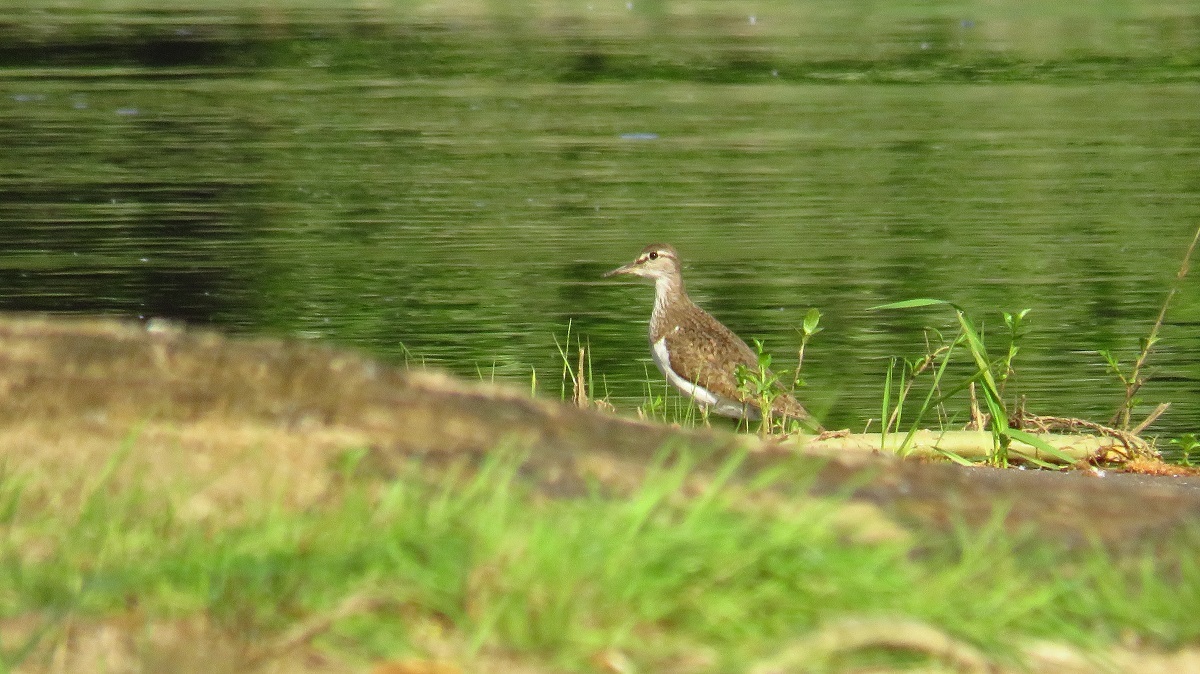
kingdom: Animalia
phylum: Chordata
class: Aves
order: Charadriiformes
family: Scolopacidae
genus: Actitis
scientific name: Actitis hypoleucos
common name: Common sandpiper
